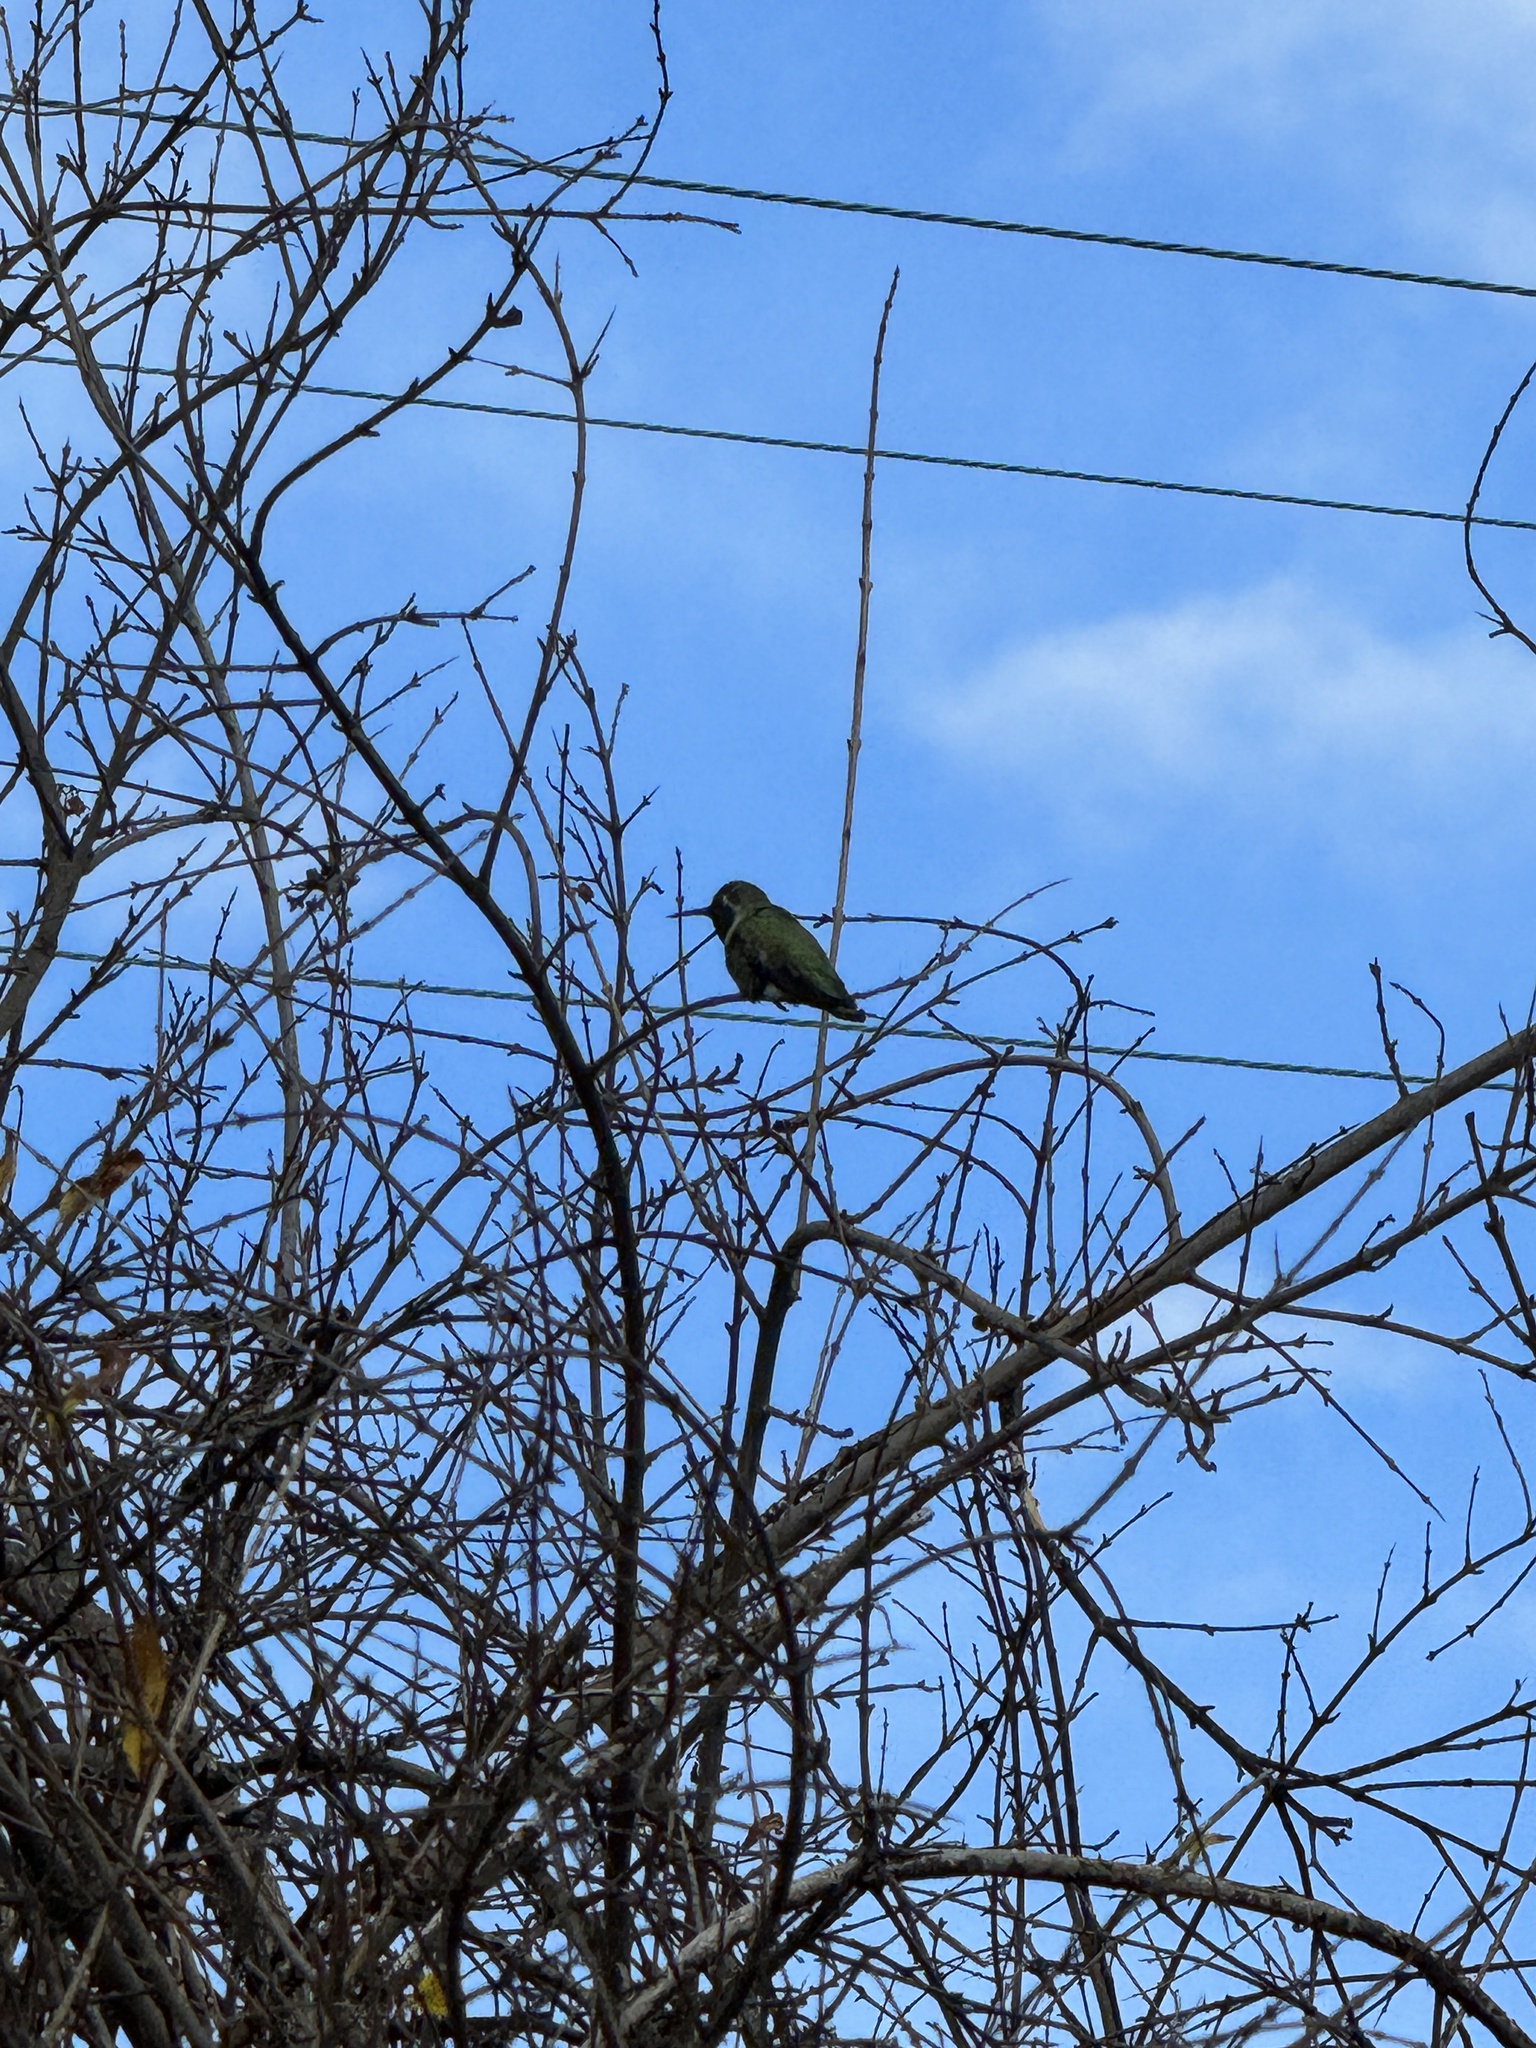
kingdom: Animalia
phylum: Chordata
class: Aves
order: Apodiformes
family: Trochilidae
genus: Calypte
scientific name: Calypte anna
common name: Anna's hummingbird
